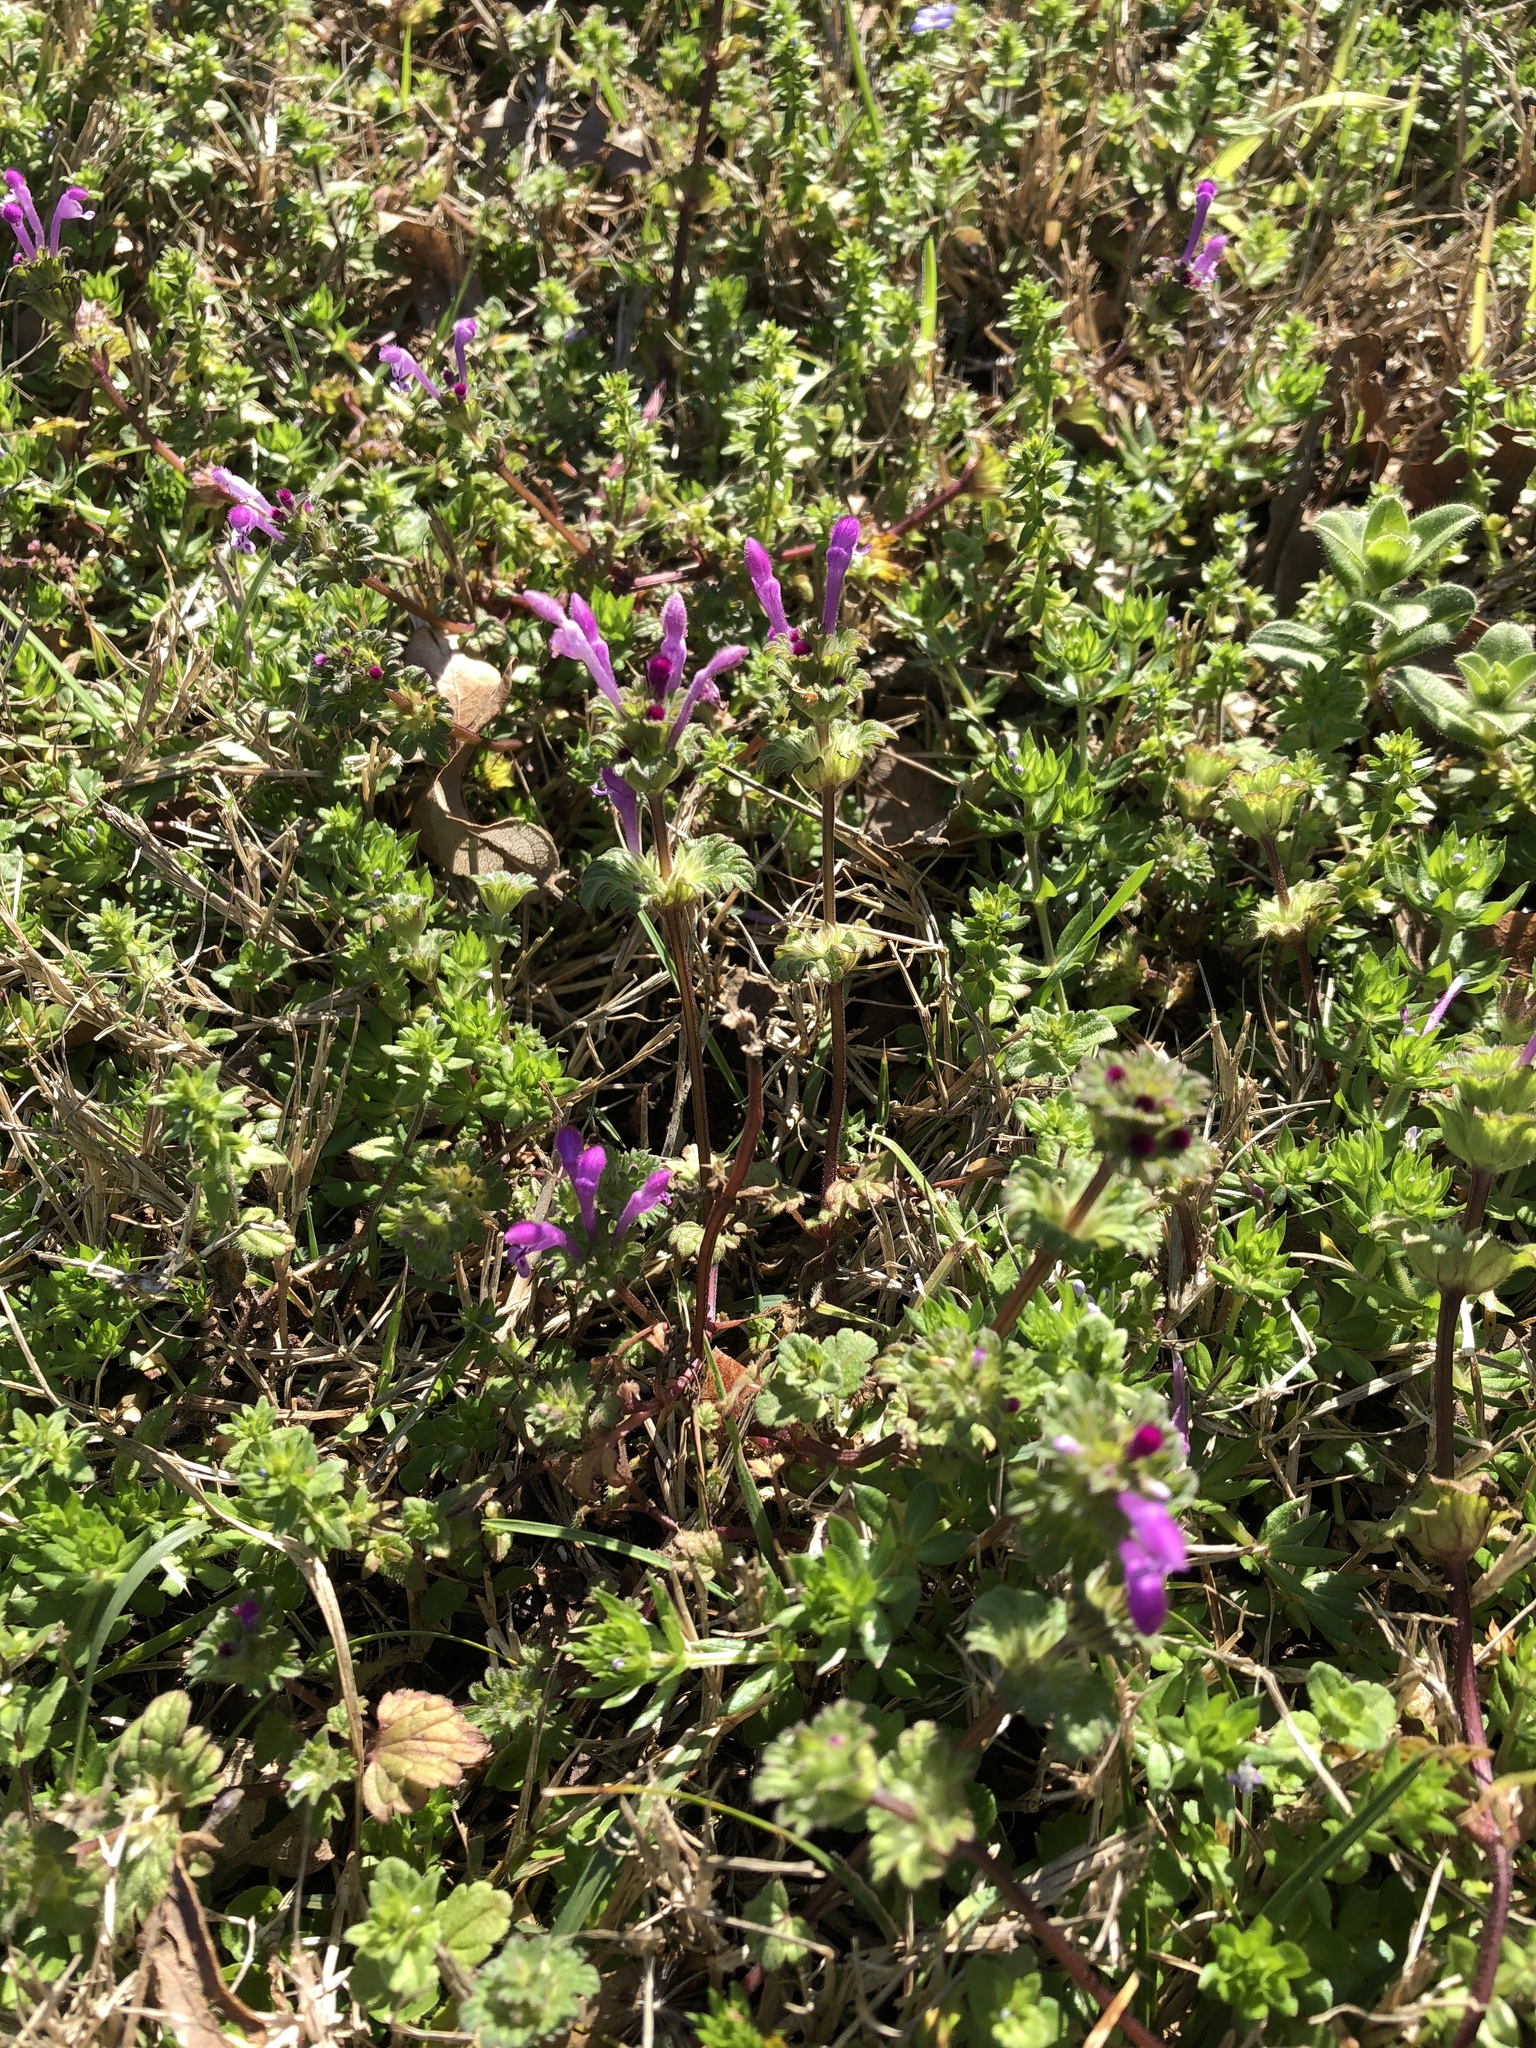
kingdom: Plantae
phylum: Tracheophyta
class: Magnoliopsida
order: Lamiales
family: Lamiaceae
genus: Lamium
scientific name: Lamium amplexicaule
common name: Henbit dead-nettle
